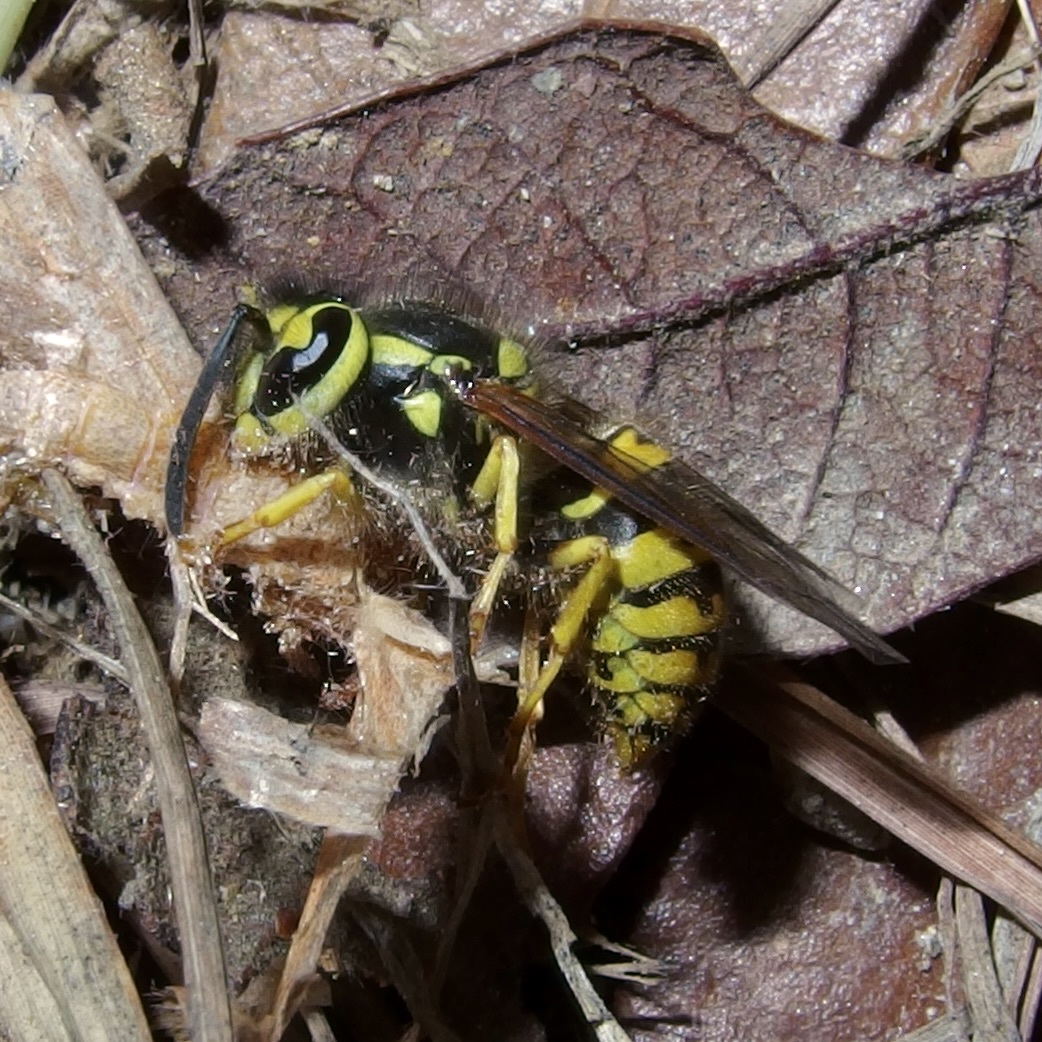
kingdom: Animalia
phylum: Arthropoda
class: Insecta
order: Hymenoptera
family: Vespidae
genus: Vespula
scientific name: Vespula pensylvanica
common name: Western yellowjacket
